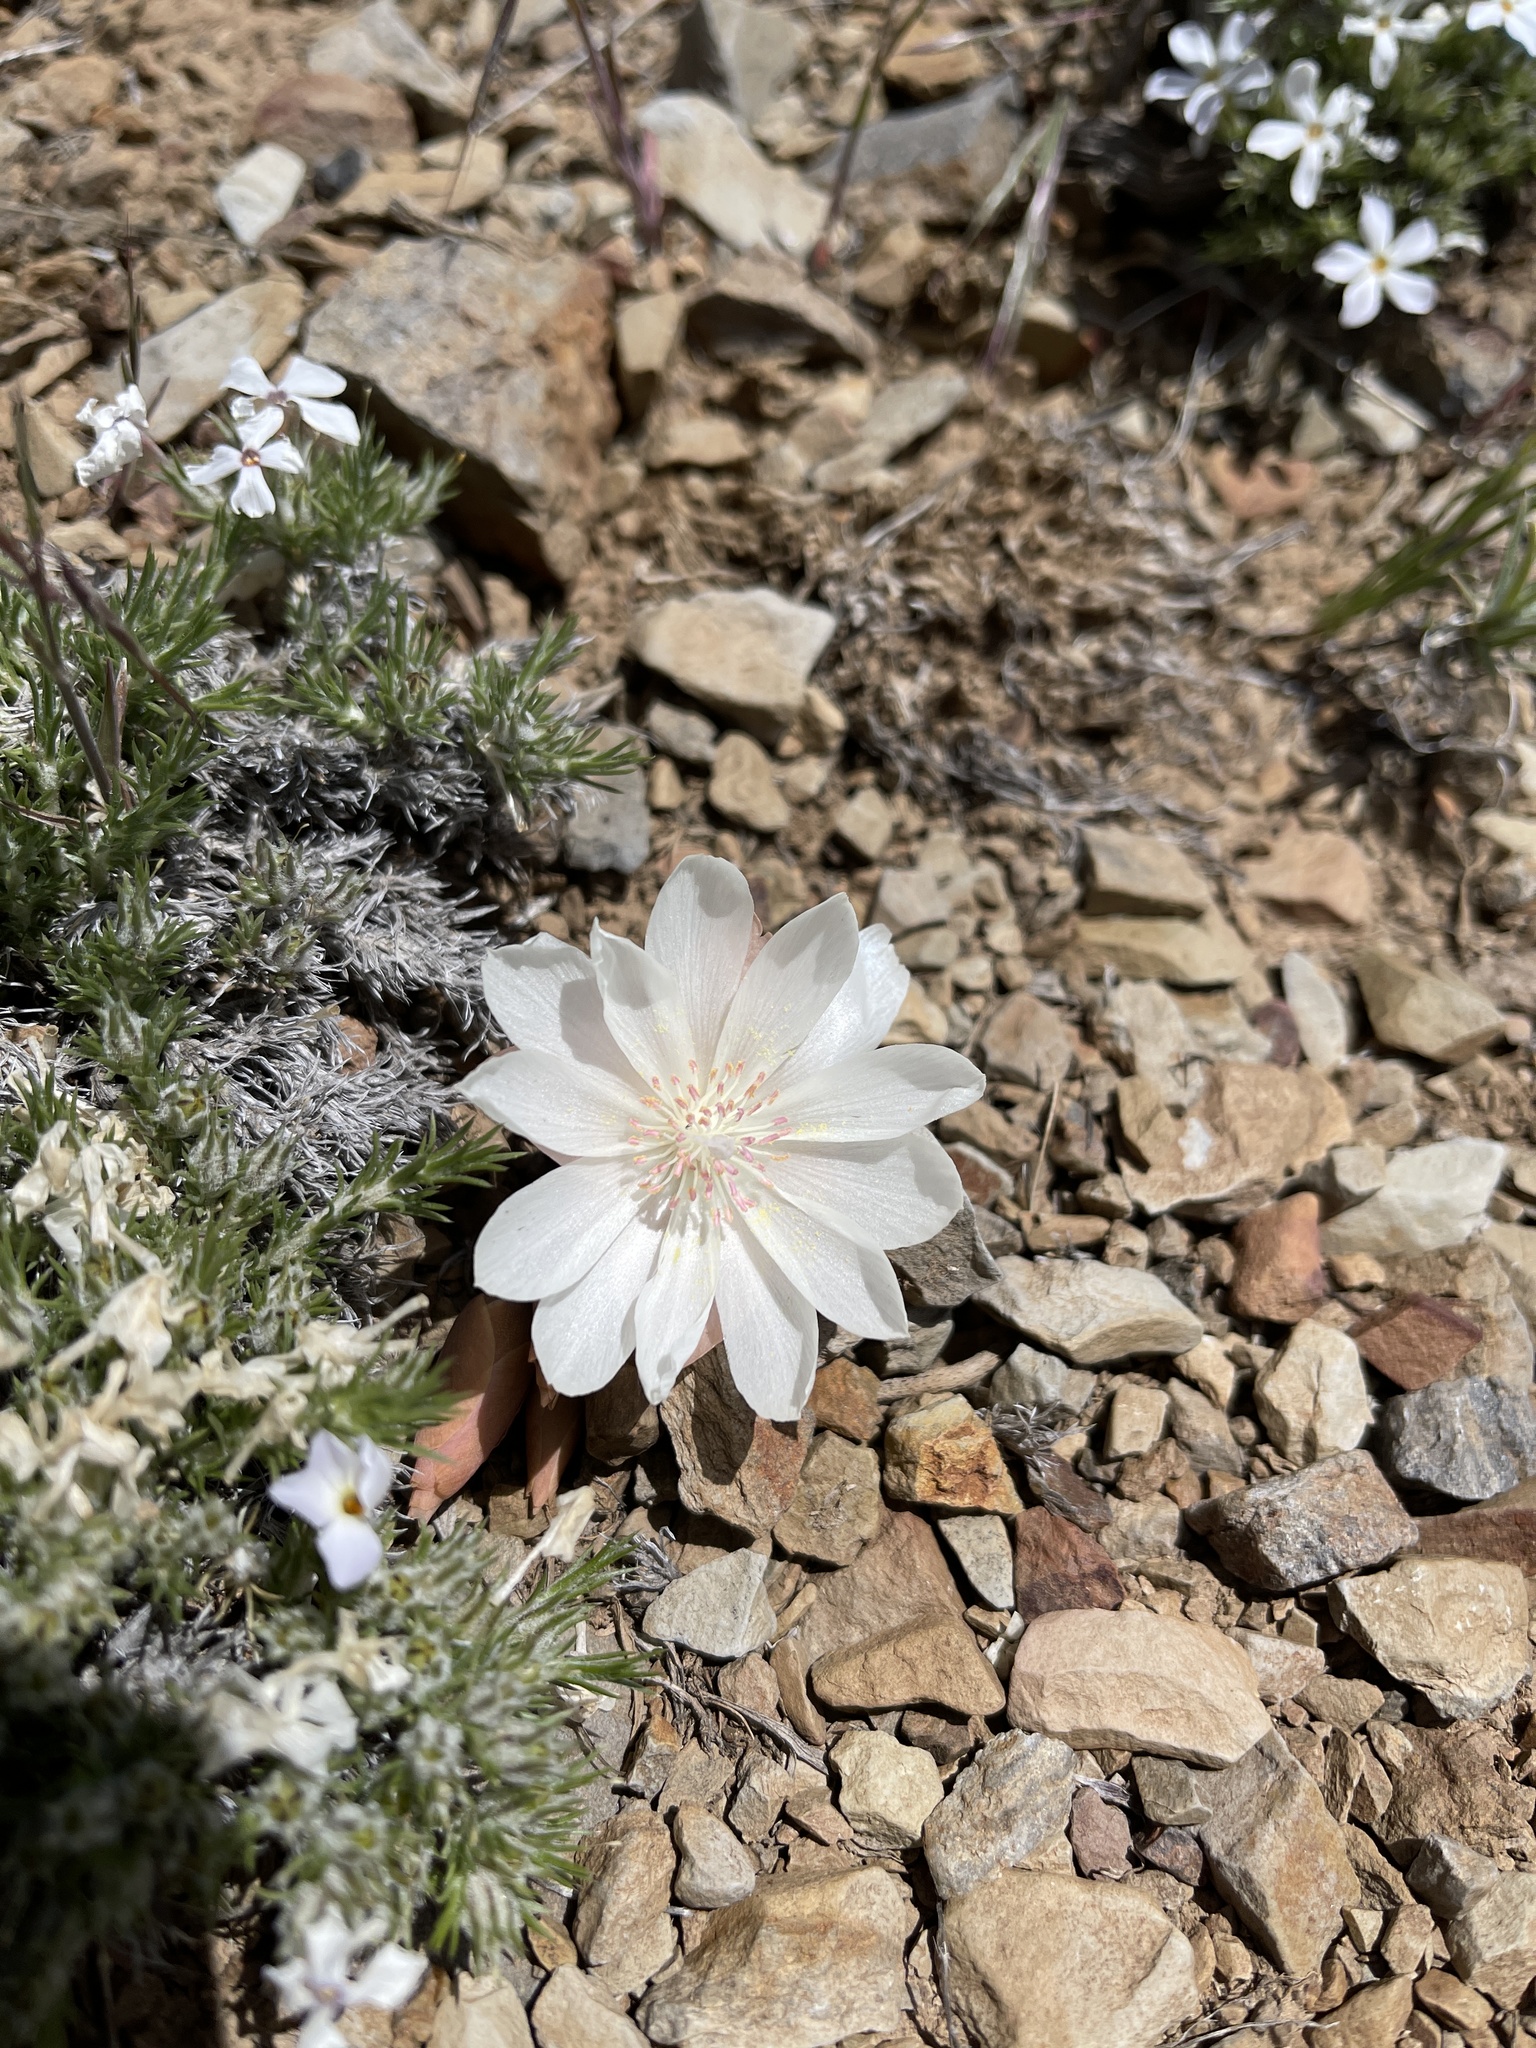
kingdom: Plantae
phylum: Tracheophyta
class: Magnoliopsida
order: Caryophyllales
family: Montiaceae
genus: Lewisia
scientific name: Lewisia rediviva
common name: Bitter-root
